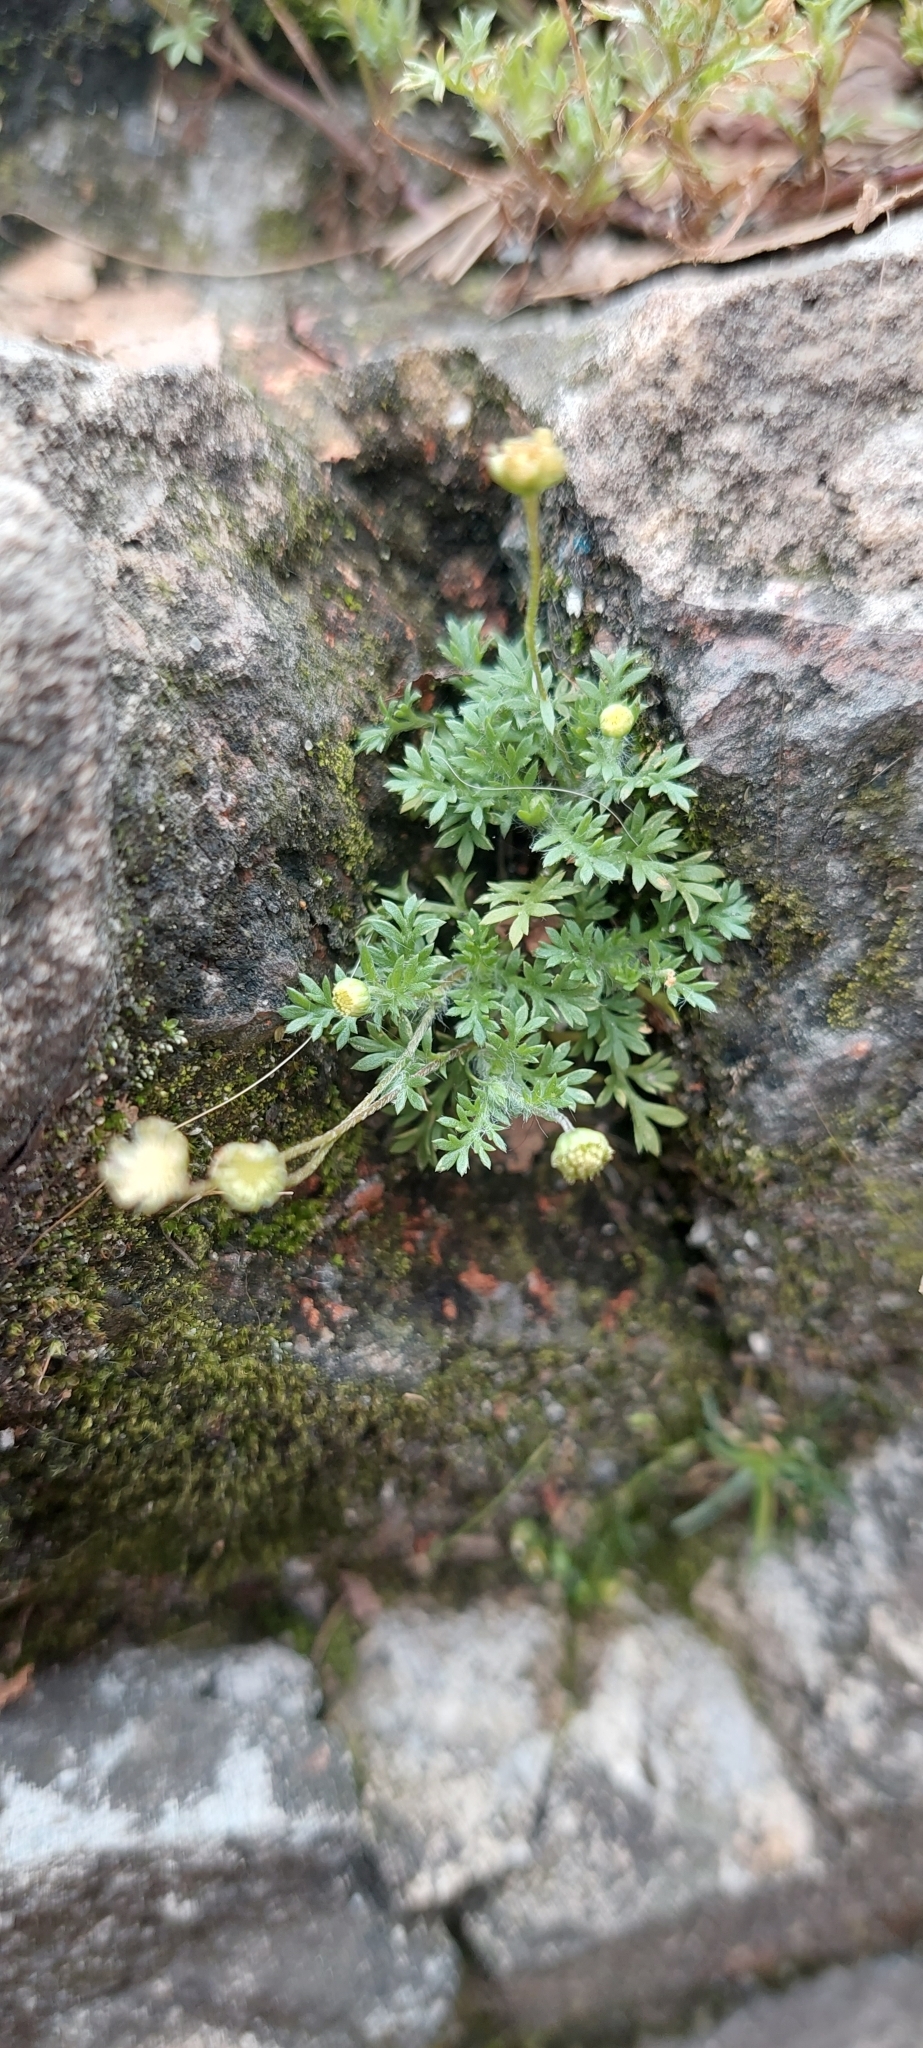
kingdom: Plantae
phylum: Tracheophyta
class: Magnoliopsida
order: Asterales
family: Asteraceae
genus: Cotula
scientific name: Cotula australis
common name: Australian waterbuttons
